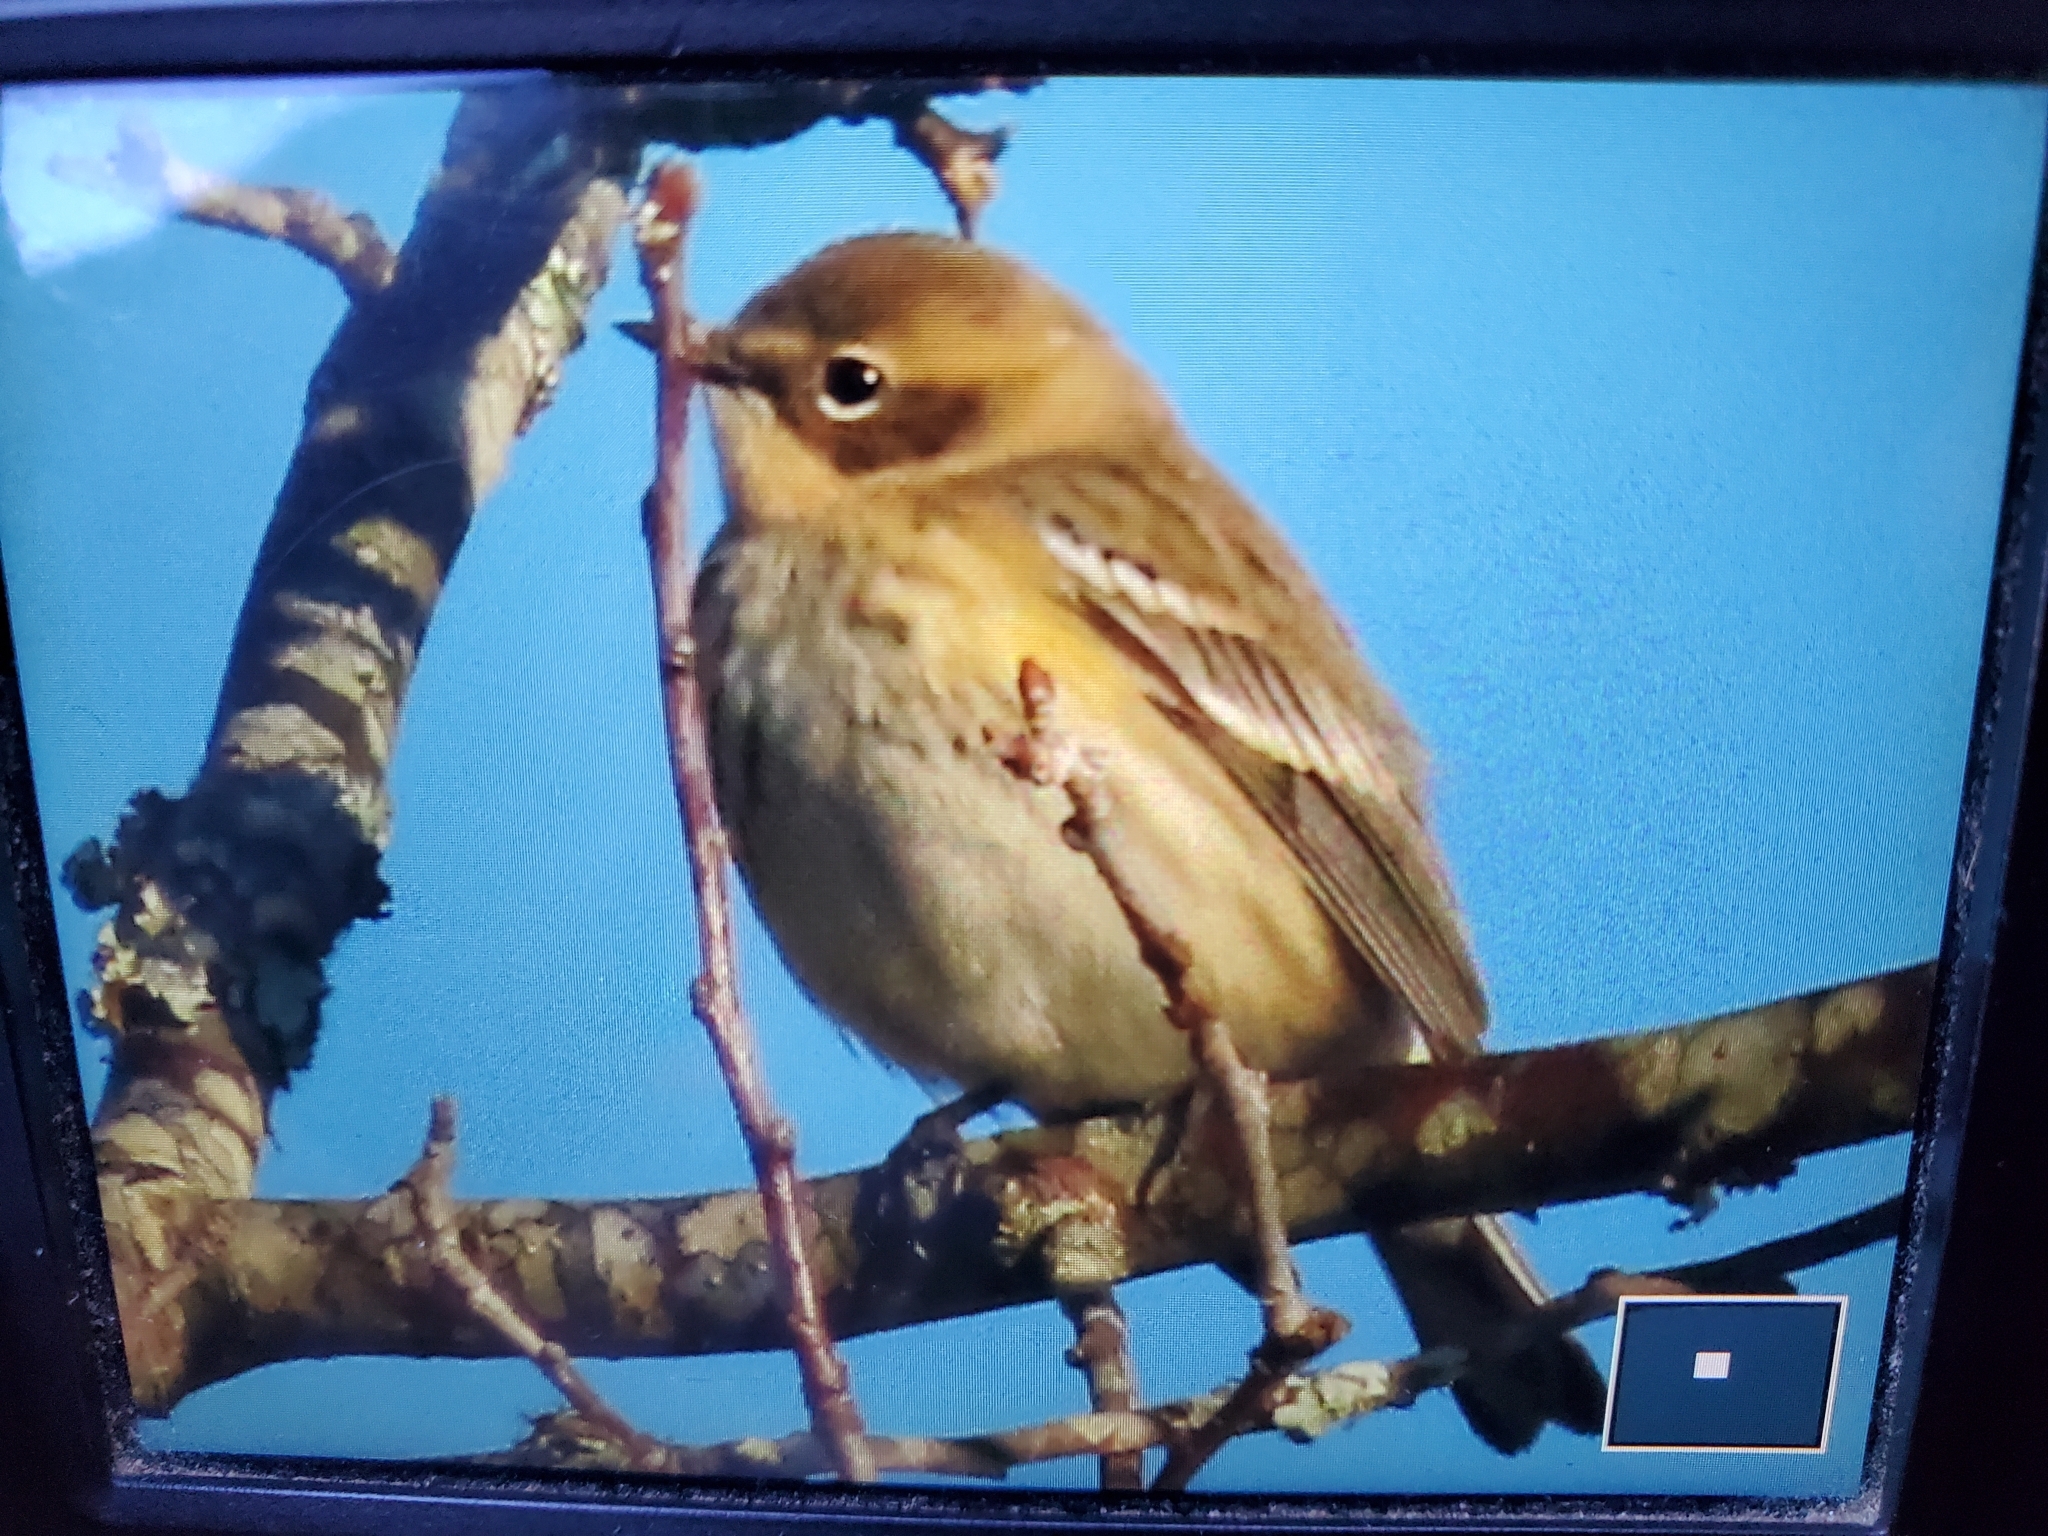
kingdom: Animalia
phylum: Chordata
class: Aves
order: Passeriformes
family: Parulidae
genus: Setophaga
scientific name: Setophaga coronata
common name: Myrtle warbler
